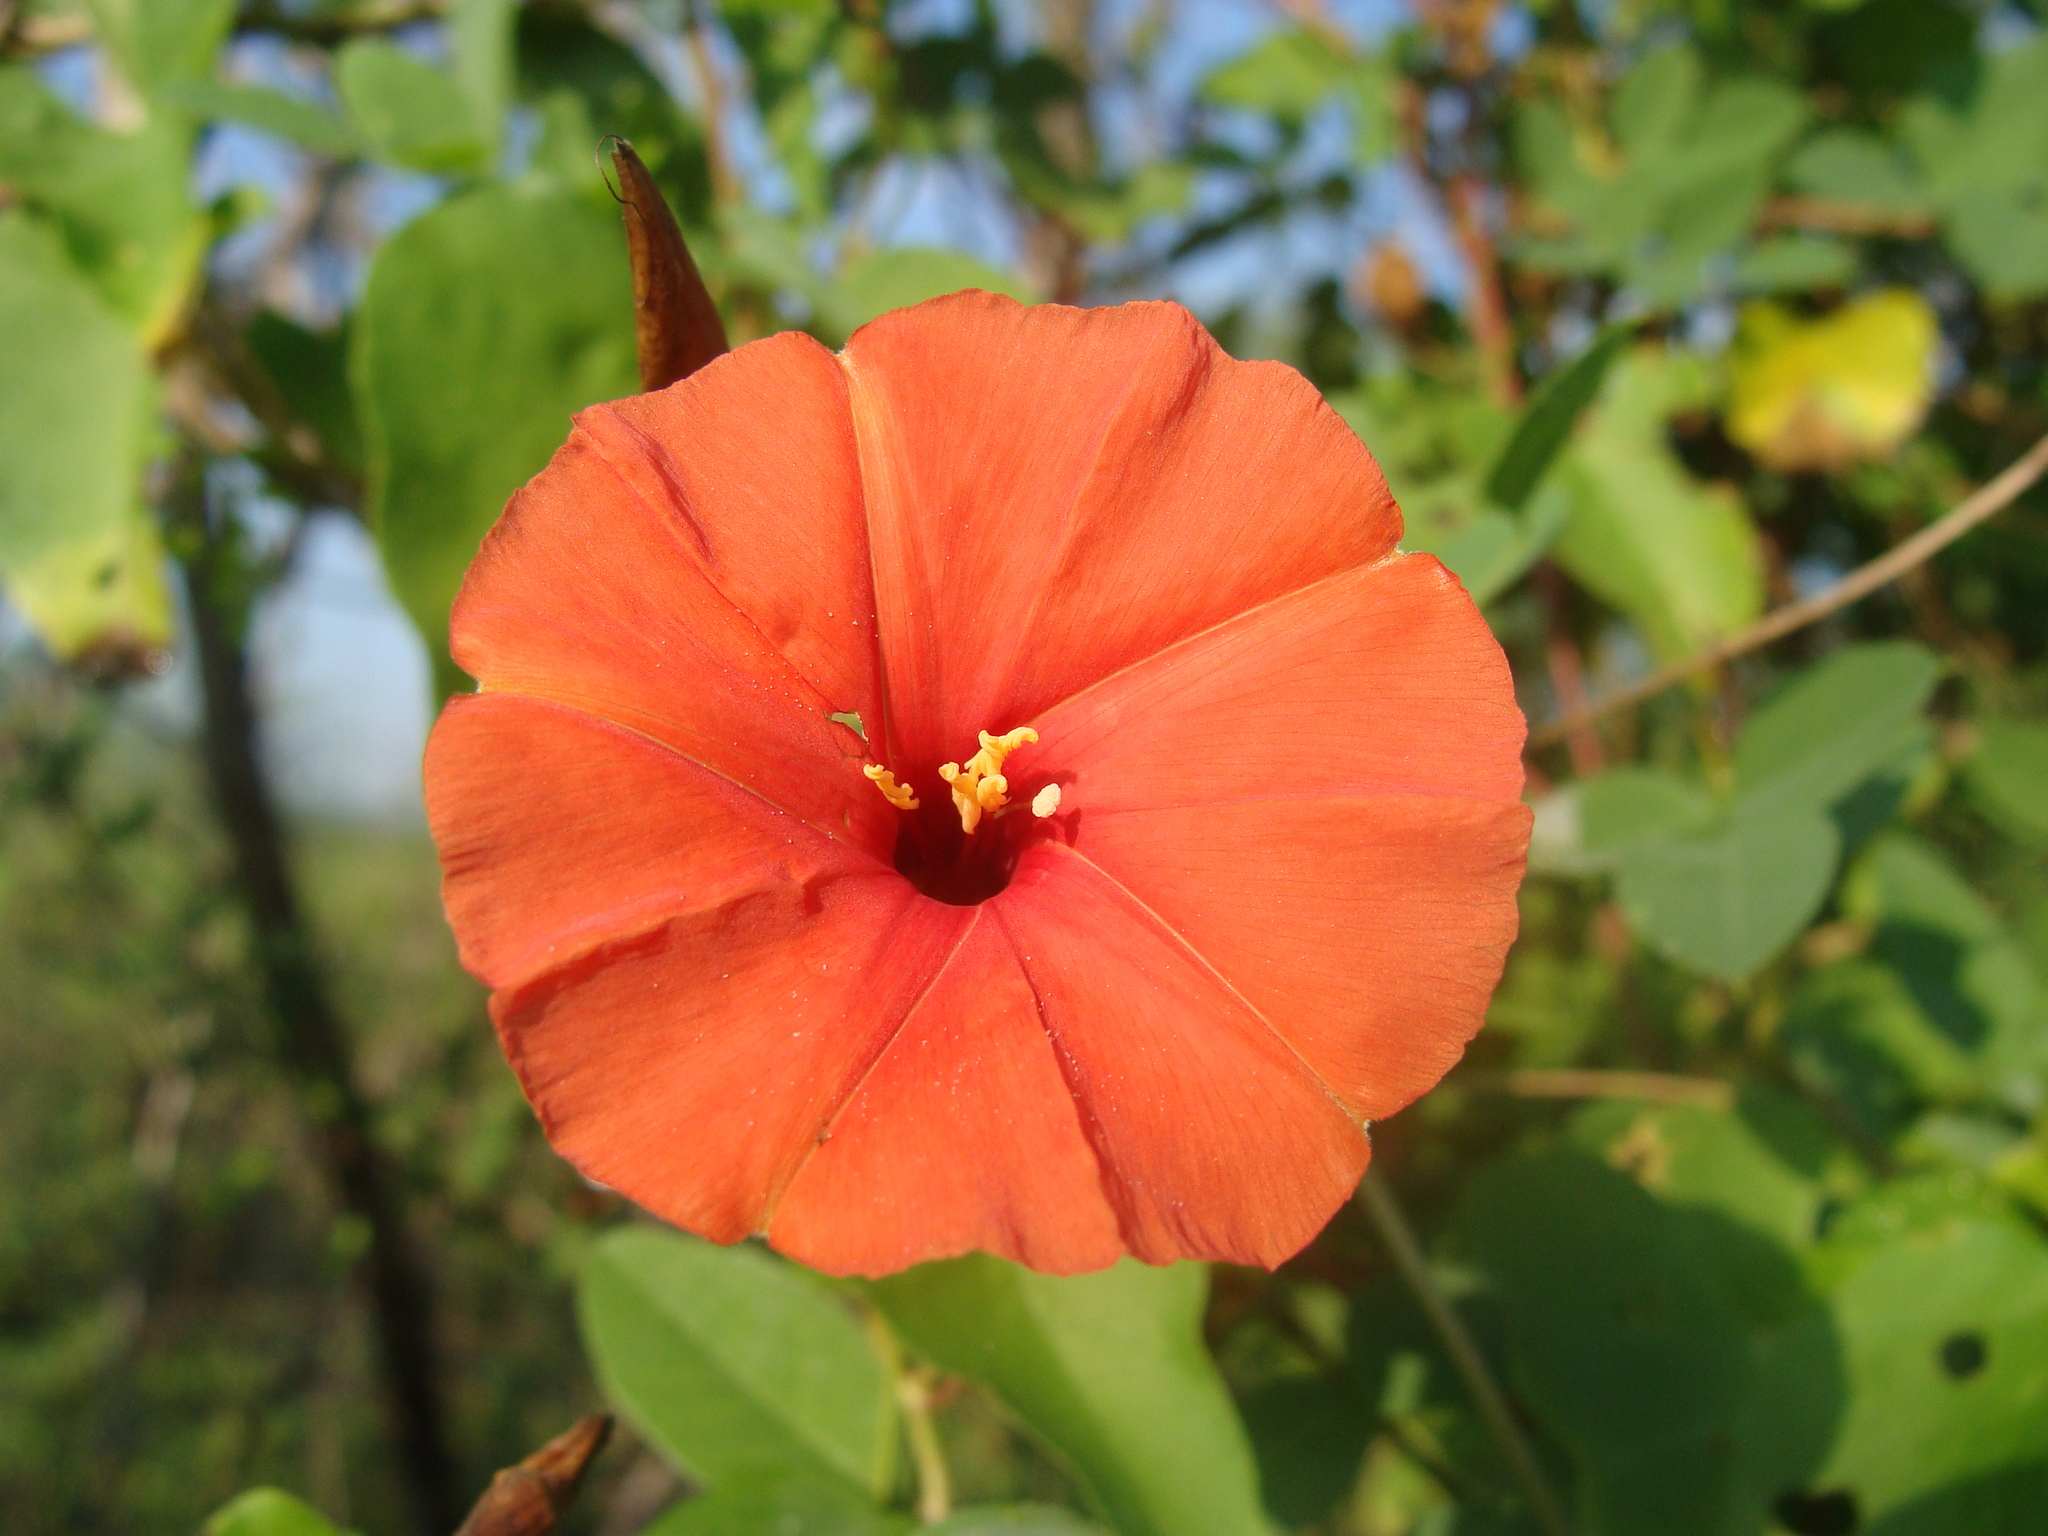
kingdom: Plantae
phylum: Tracheophyta
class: Magnoliopsida
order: Solanales
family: Convolvulaceae
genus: Operculina
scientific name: Operculina pteripes
